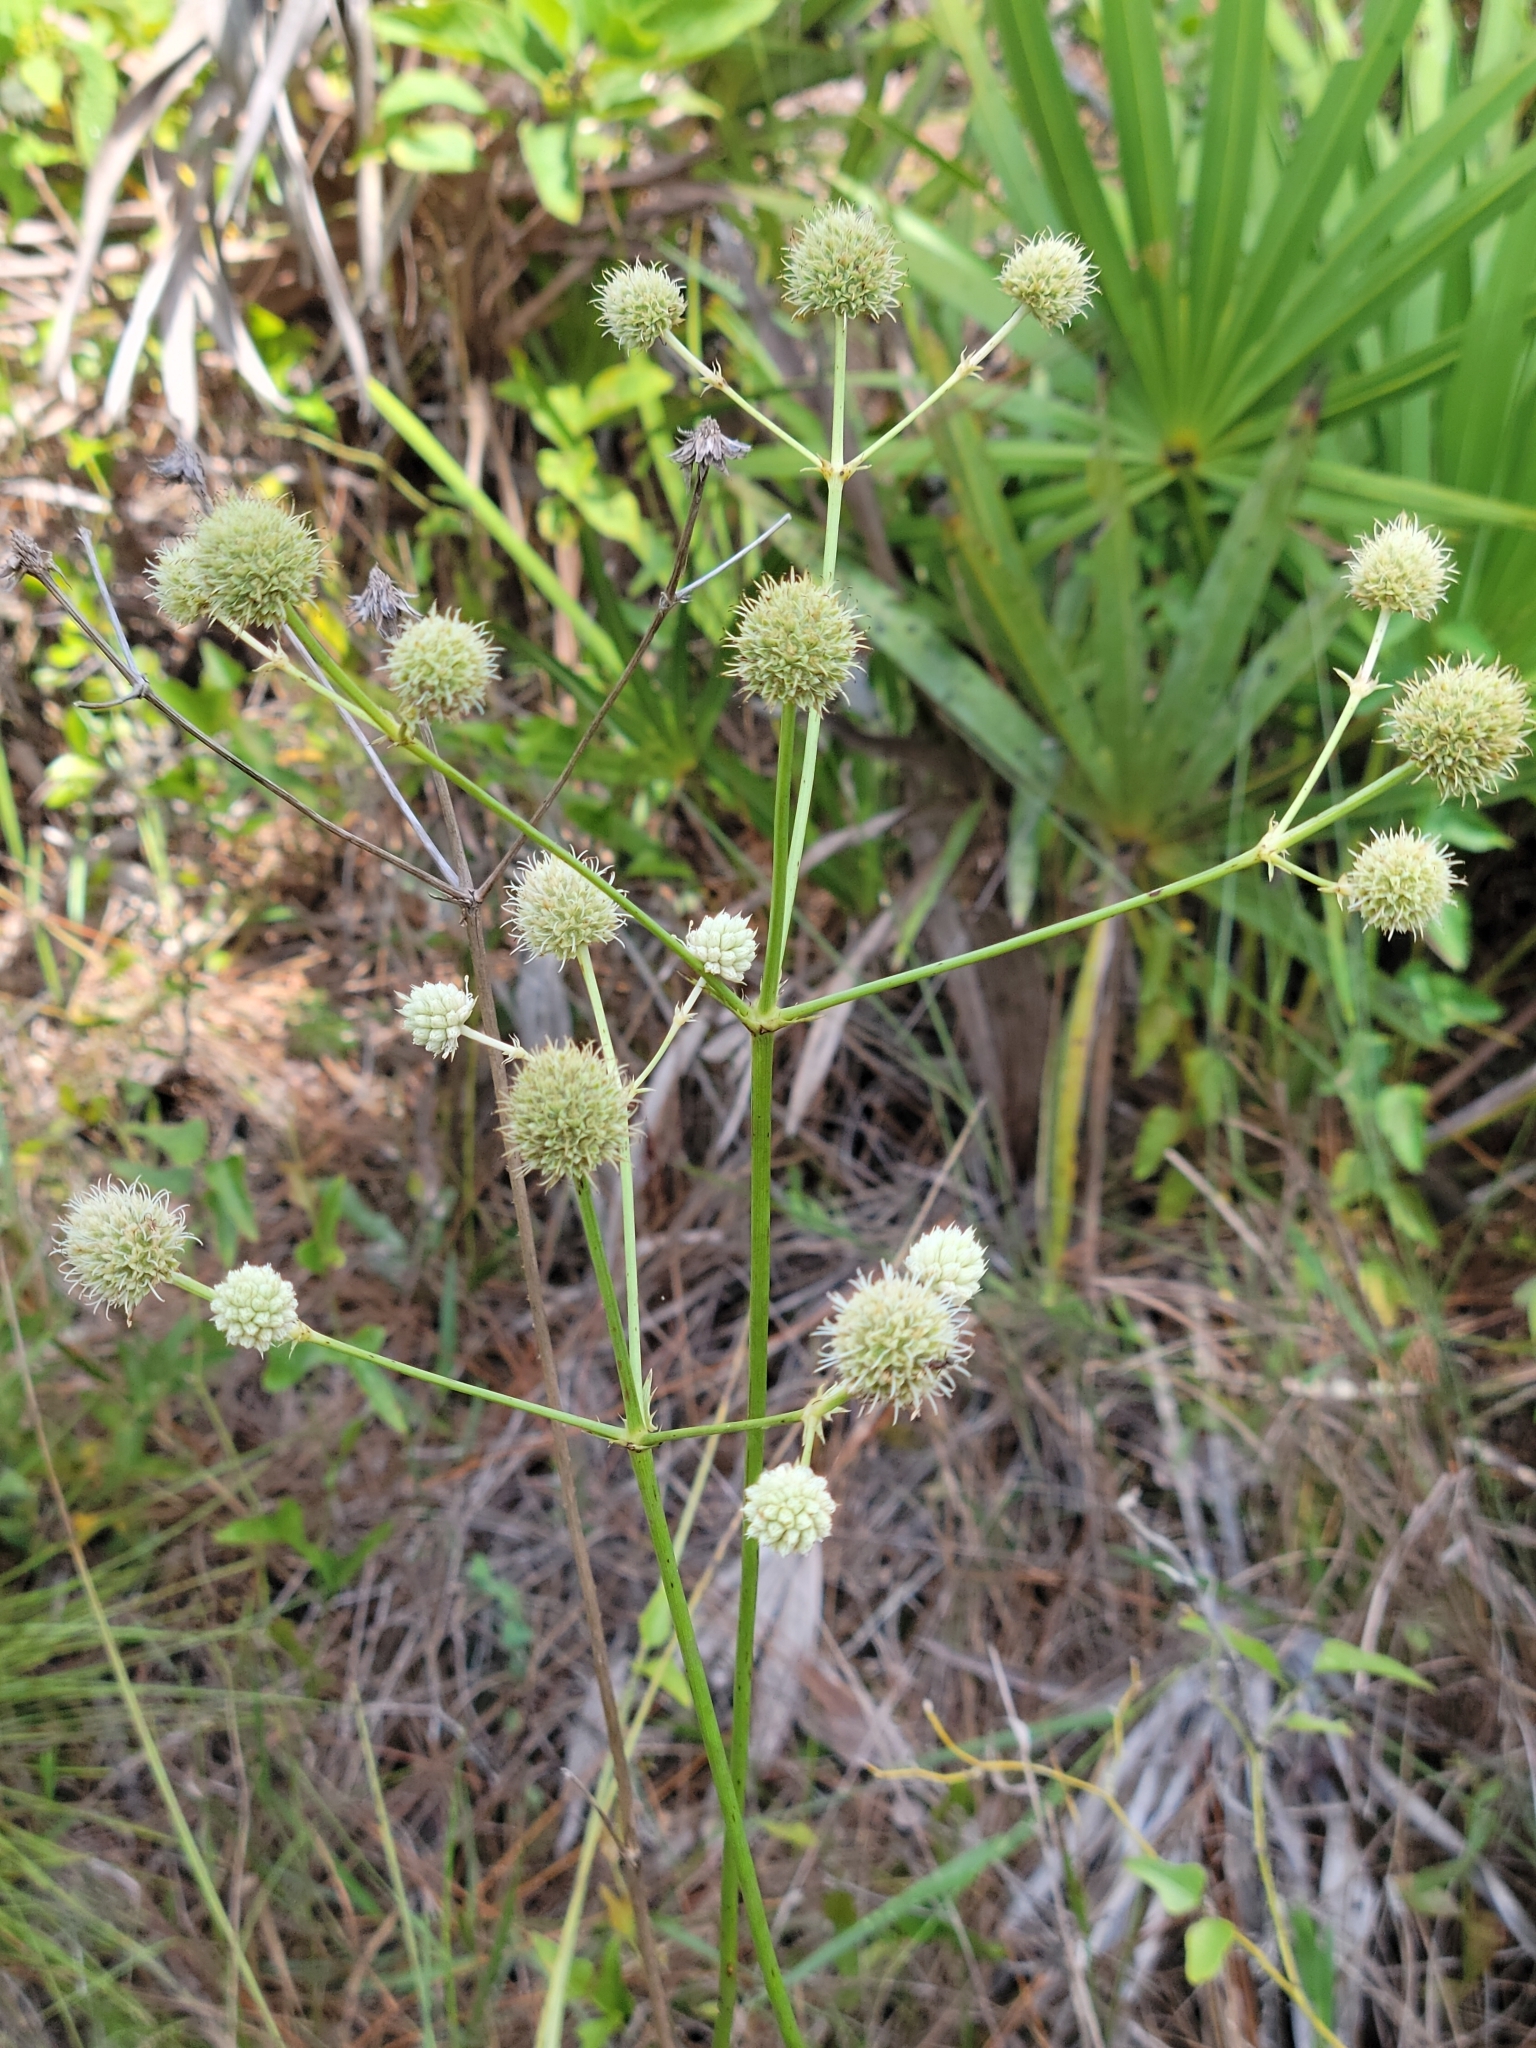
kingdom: Plantae
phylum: Tracheophyta
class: Magnoliopsida
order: Apiales
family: Apiaceae
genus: Eryngium
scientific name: Eryngium yuccifolium
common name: Button eryngo
